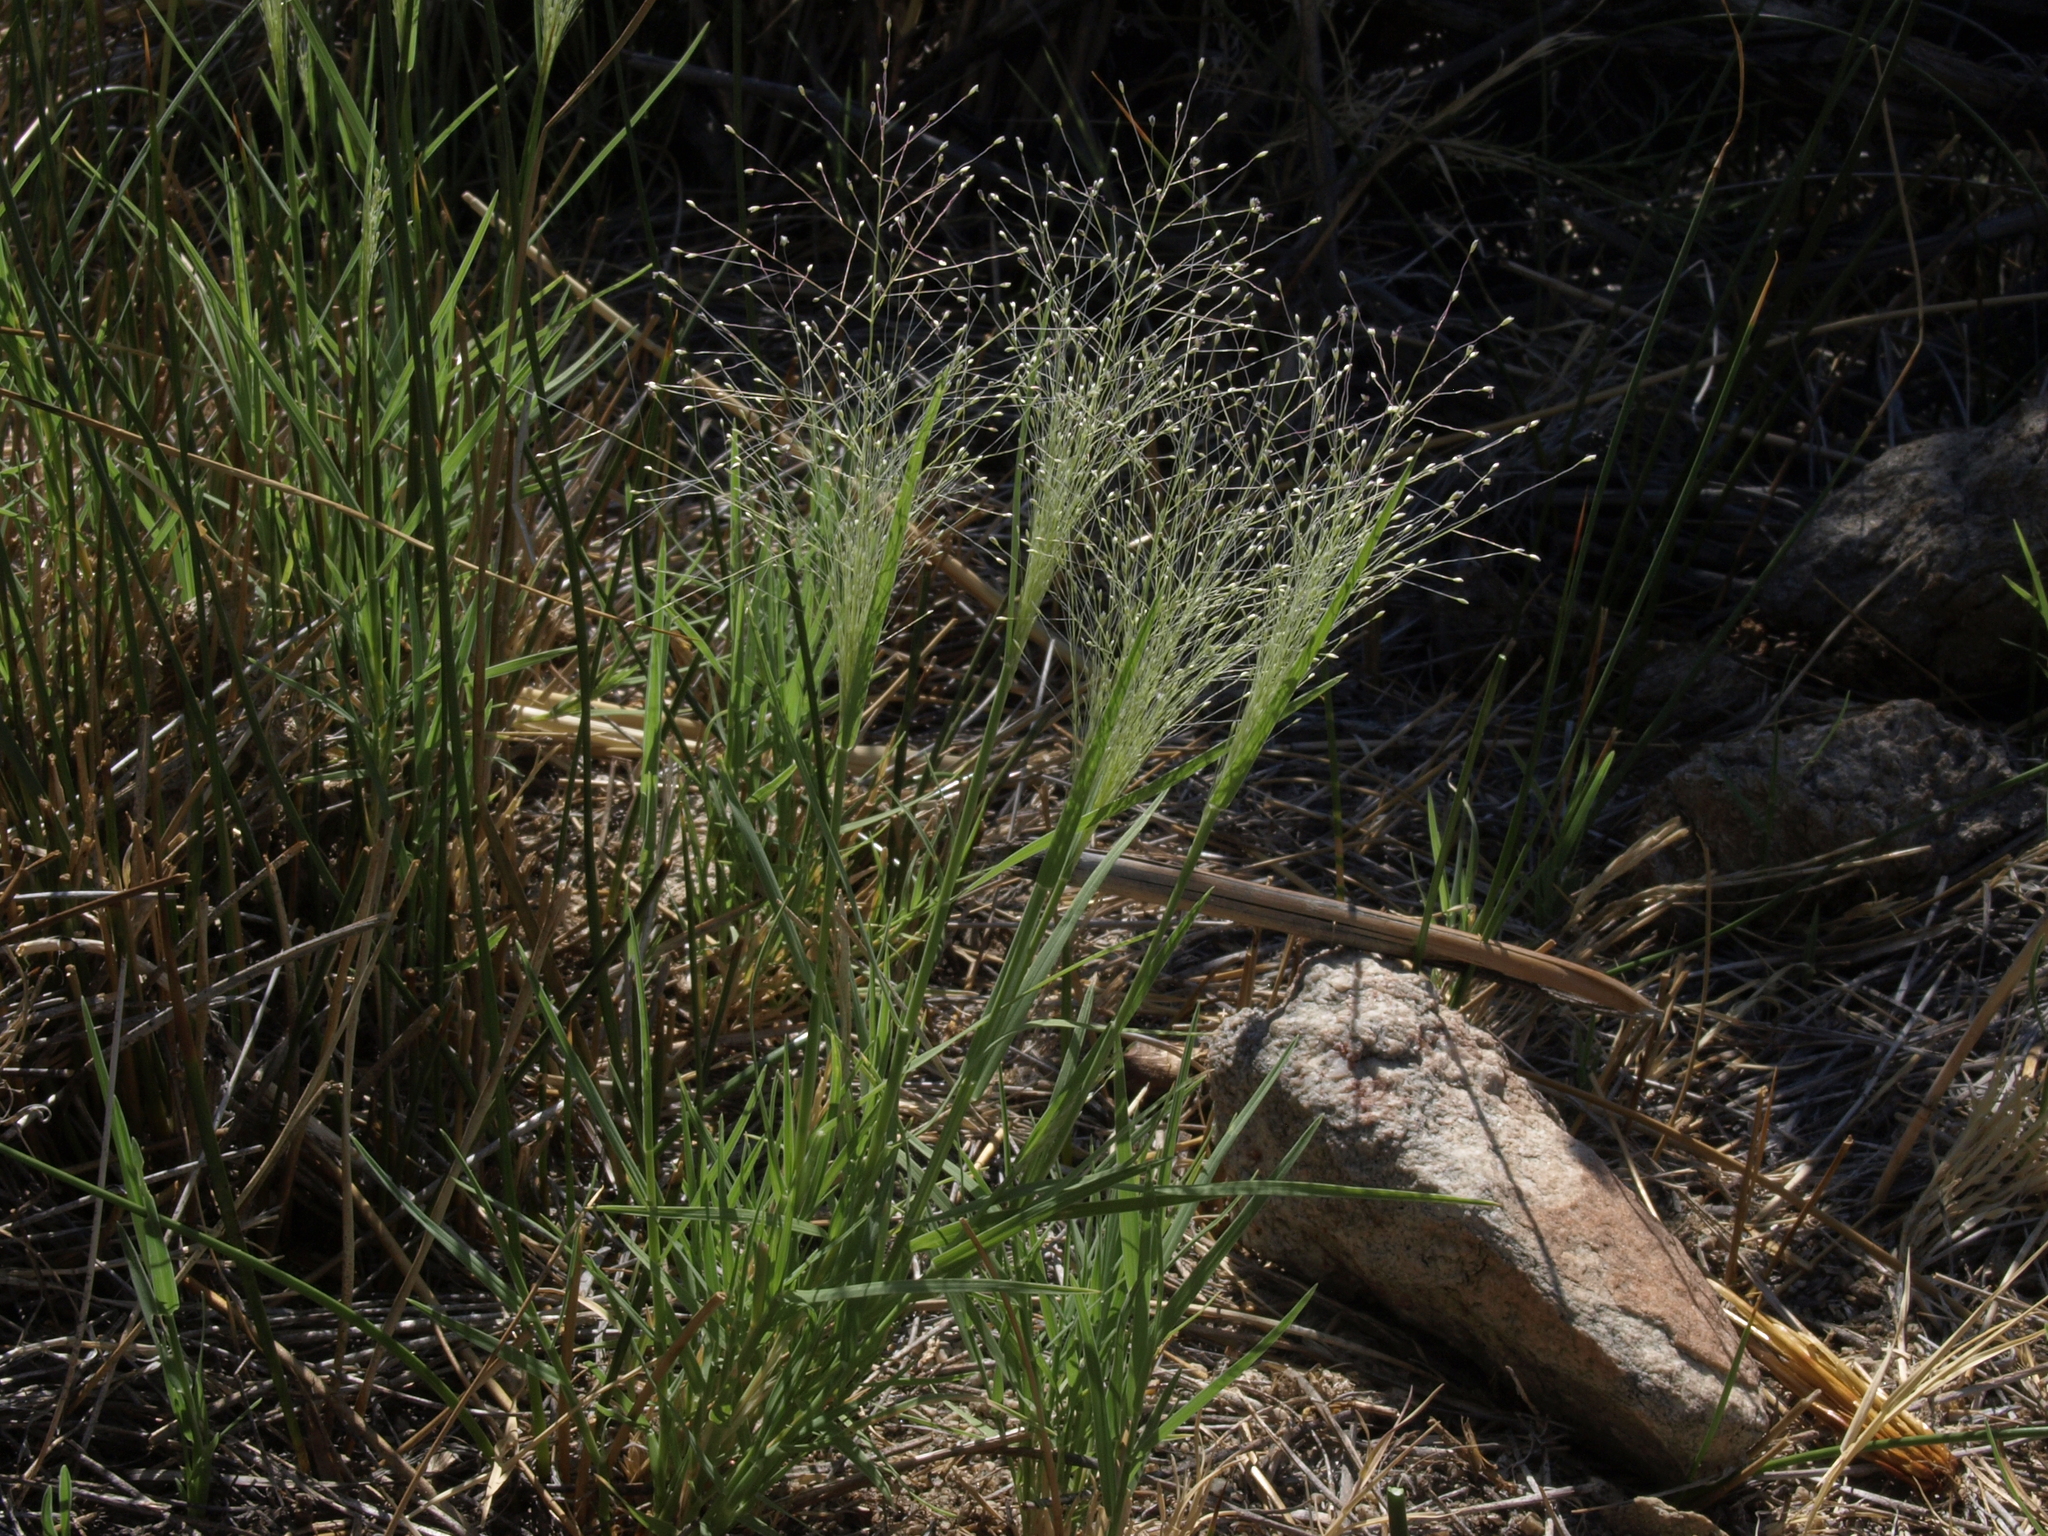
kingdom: Plantae
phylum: Tracheophyta
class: Liliopsida
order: Poales
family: Poaceae
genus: Muhlenbergia
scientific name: Muhlenbergia asperifolia
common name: Alkali muhly
